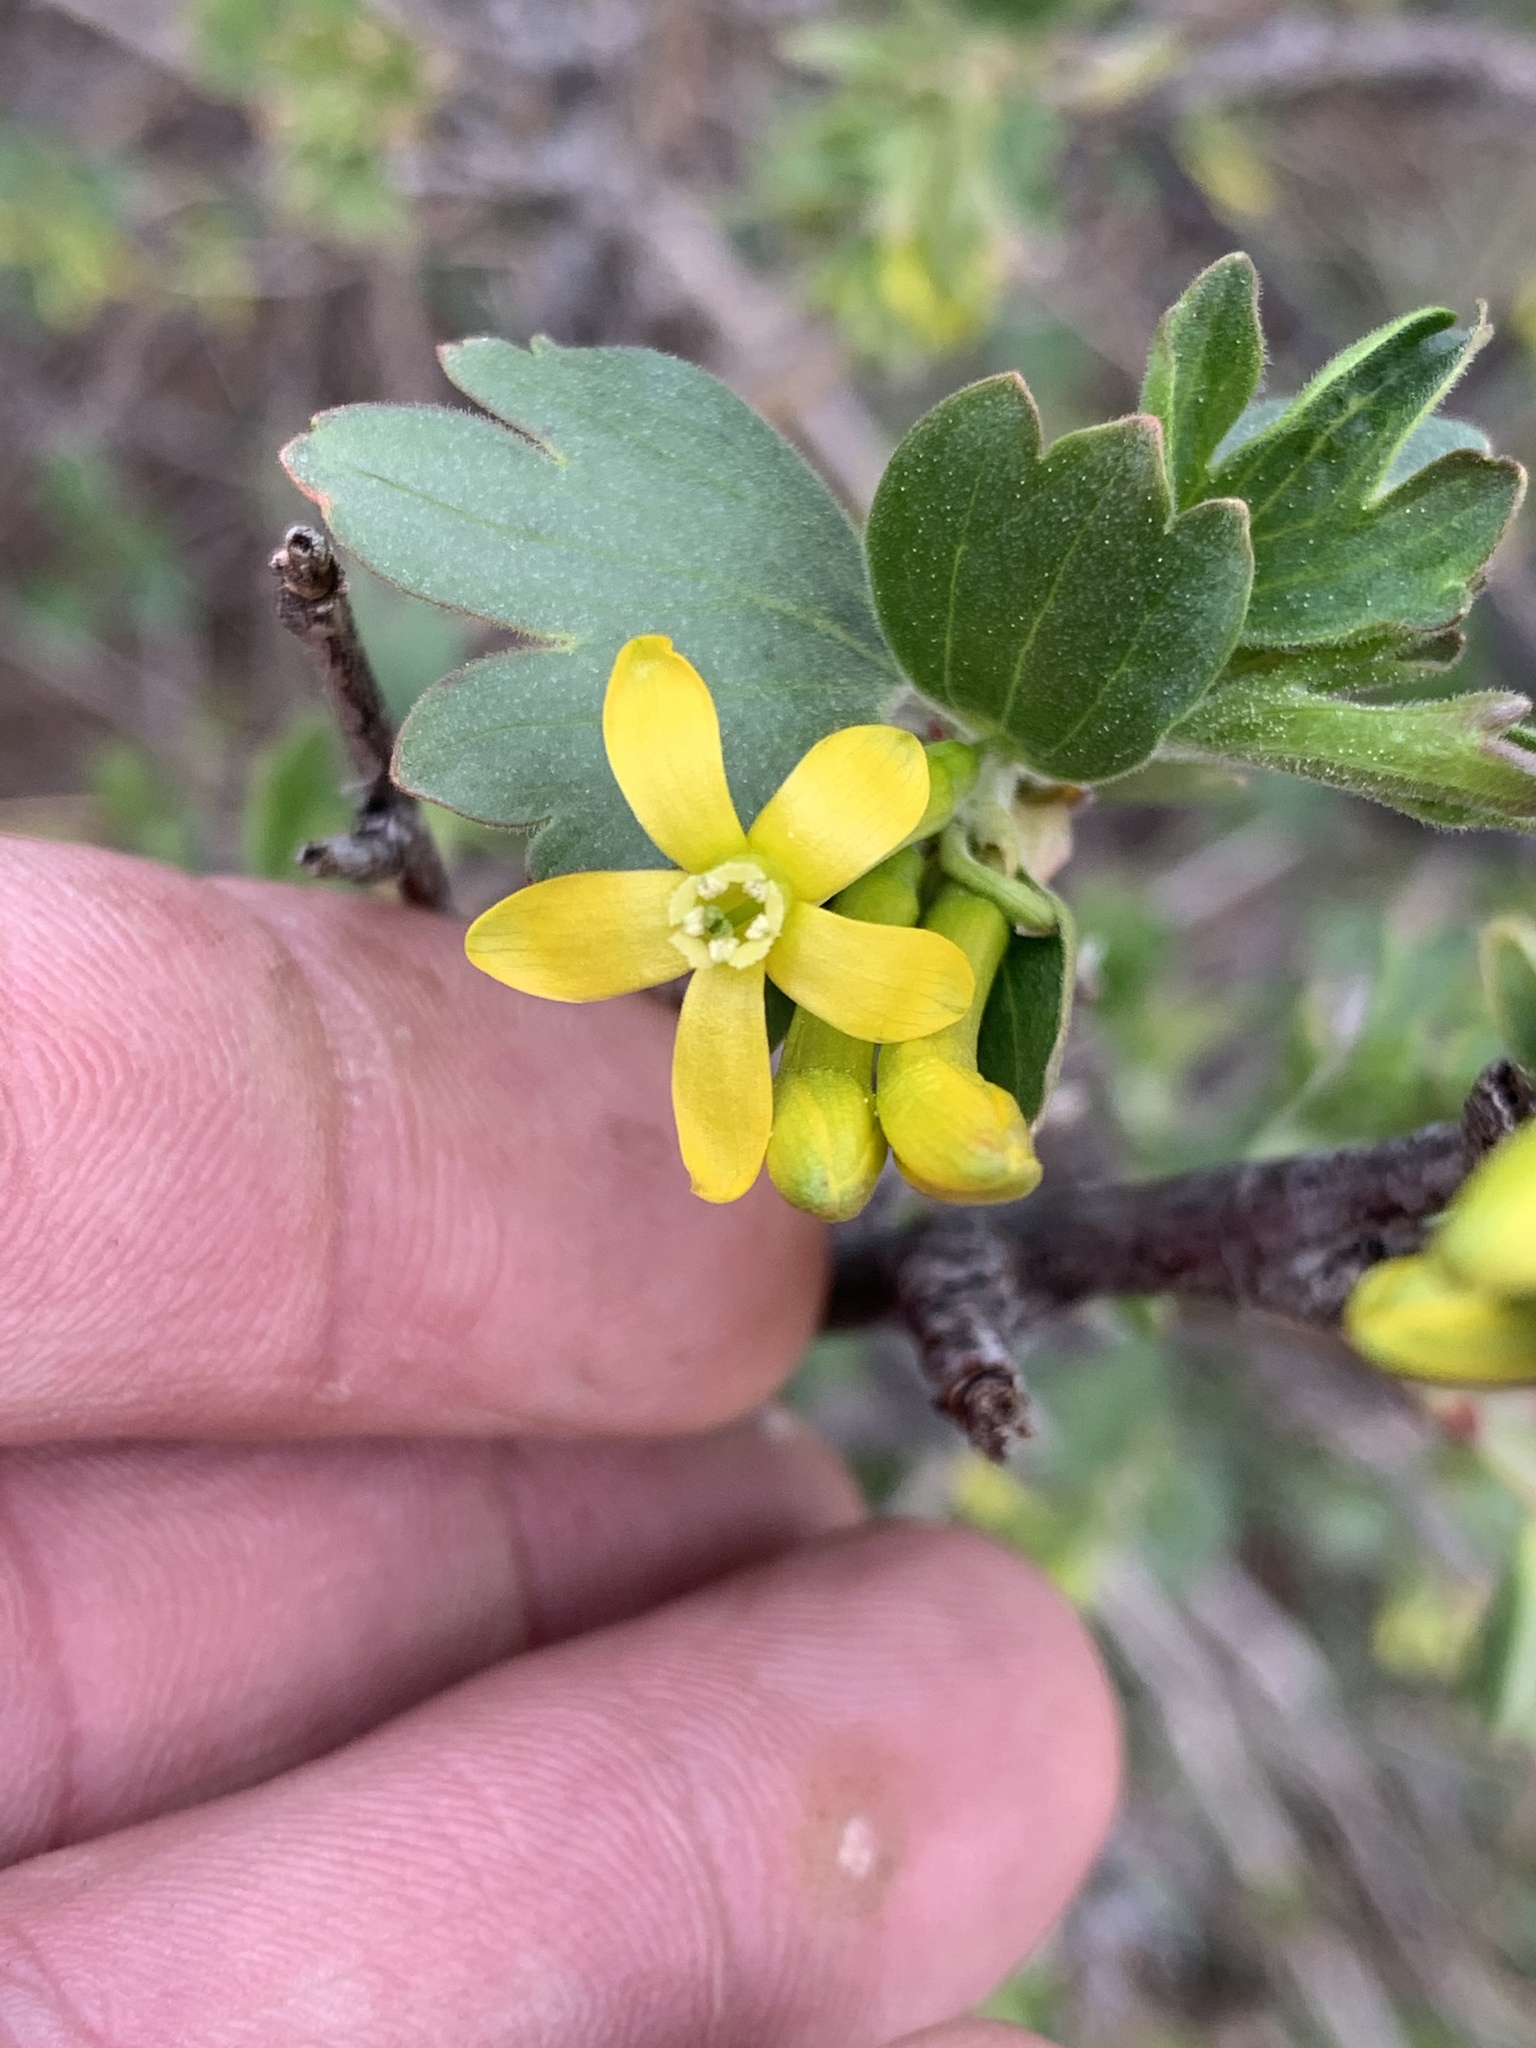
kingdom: Plantae
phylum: Tracheophyta
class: Magnoliopsida
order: Saxifragales
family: Grossulariaceae
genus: Ribes
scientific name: Ribes aureum
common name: Golden currant
